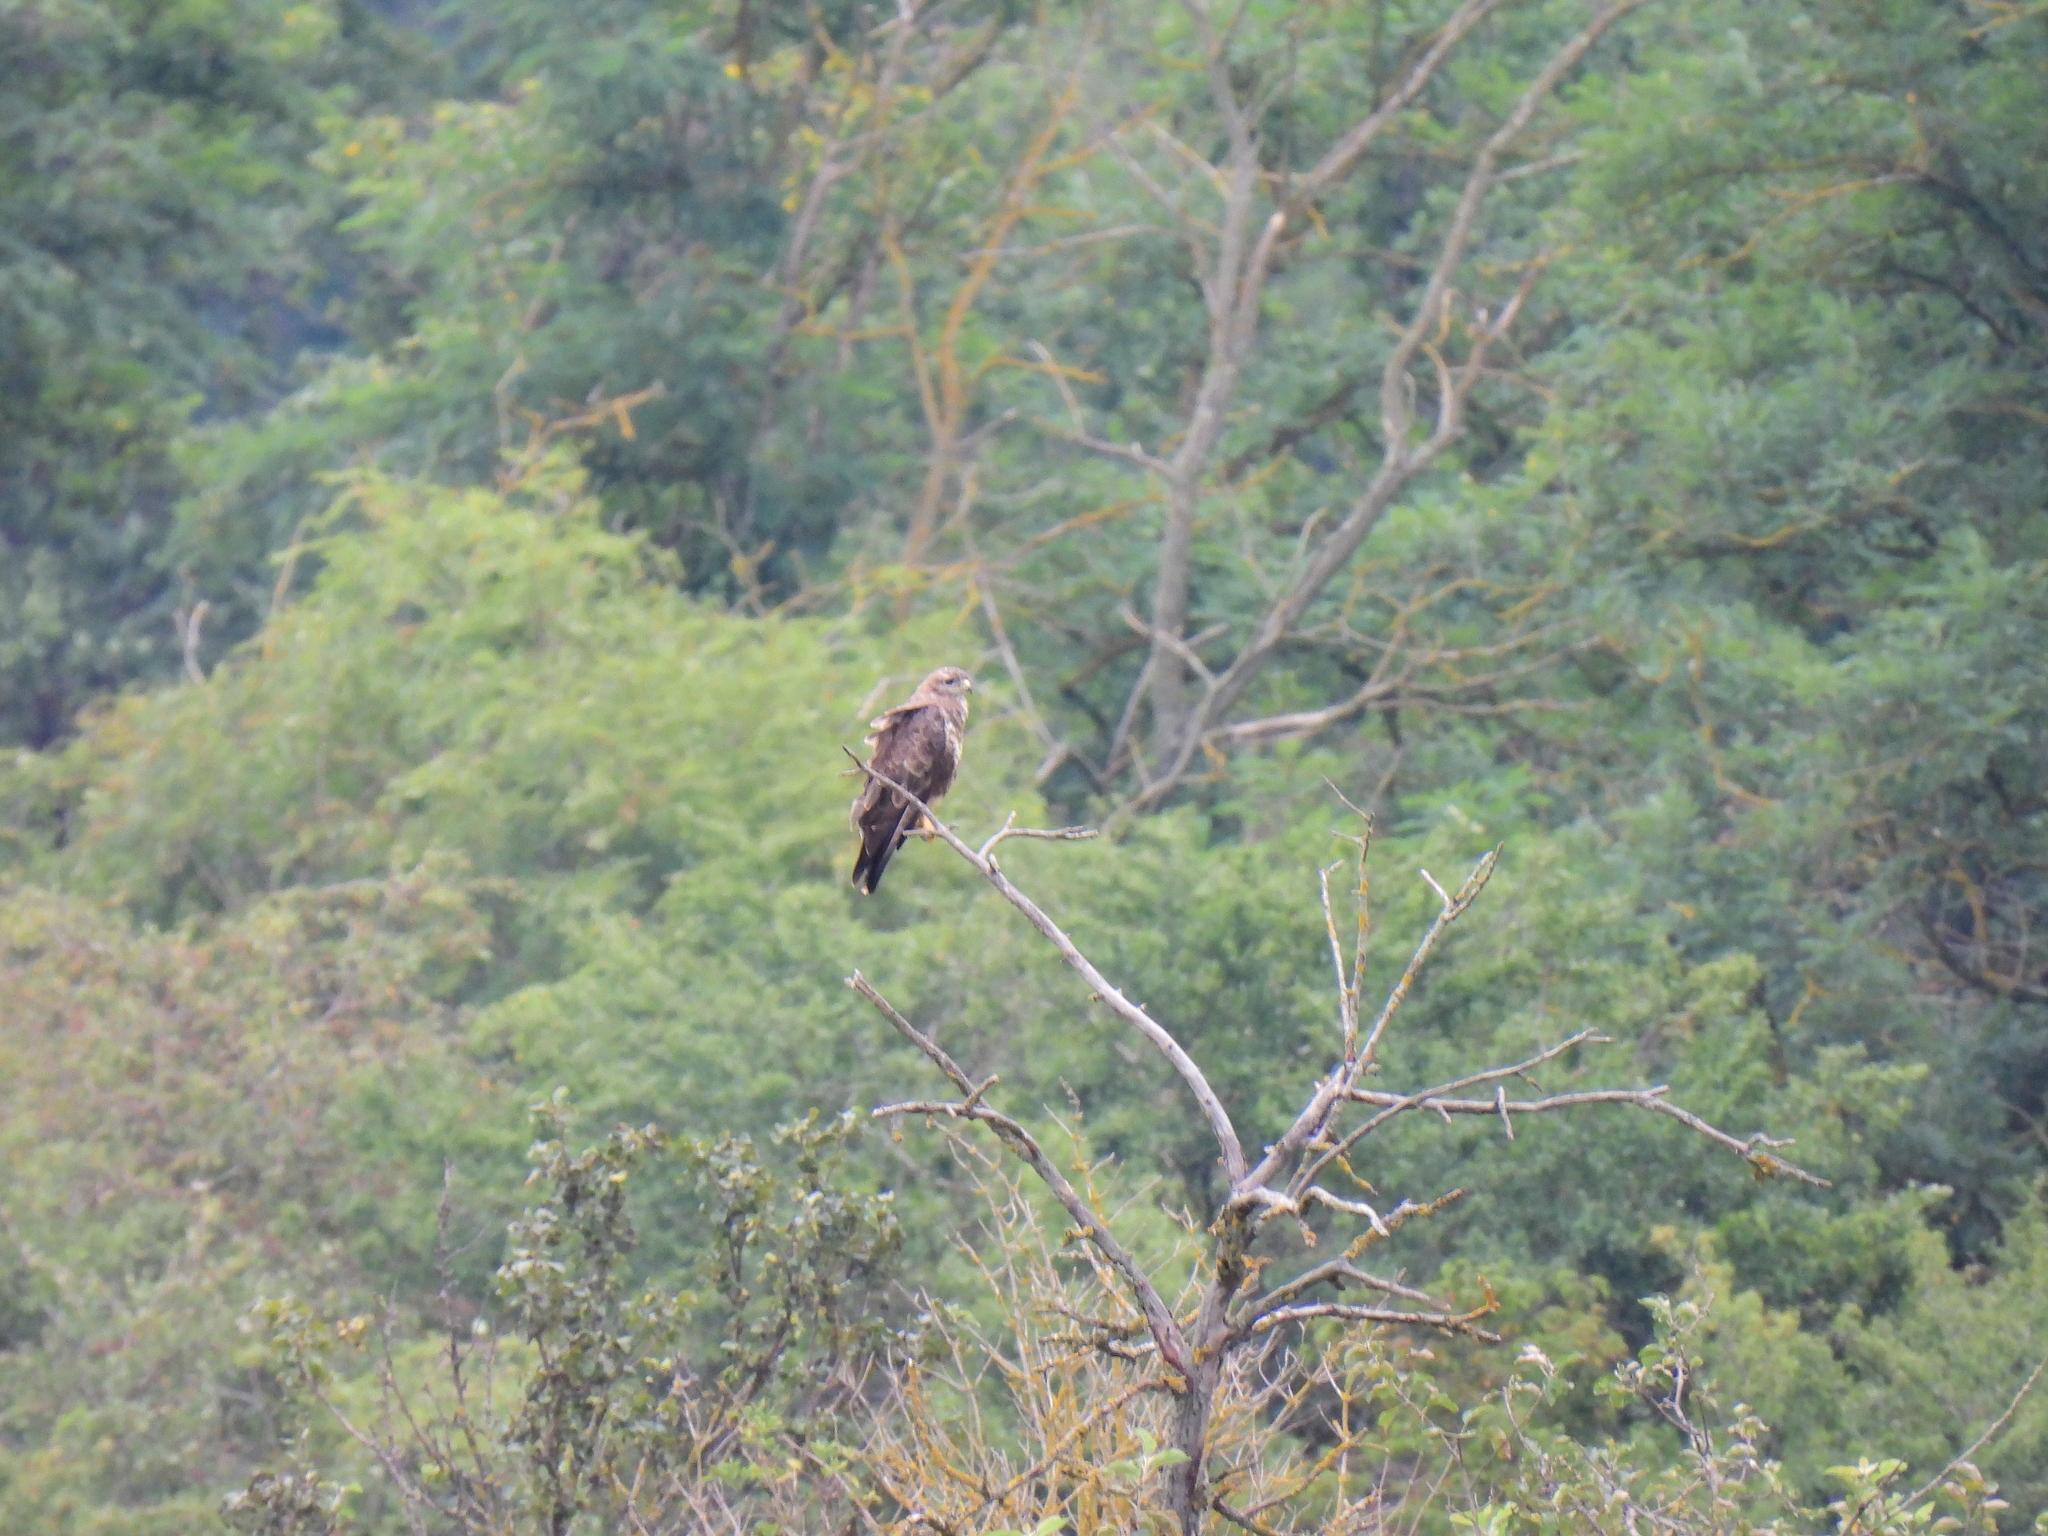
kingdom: Animalia
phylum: Chordata
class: Aves
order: Accipitriformes
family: Accipitridae
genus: Buteo
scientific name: Buteo buteo
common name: Common buzzard
